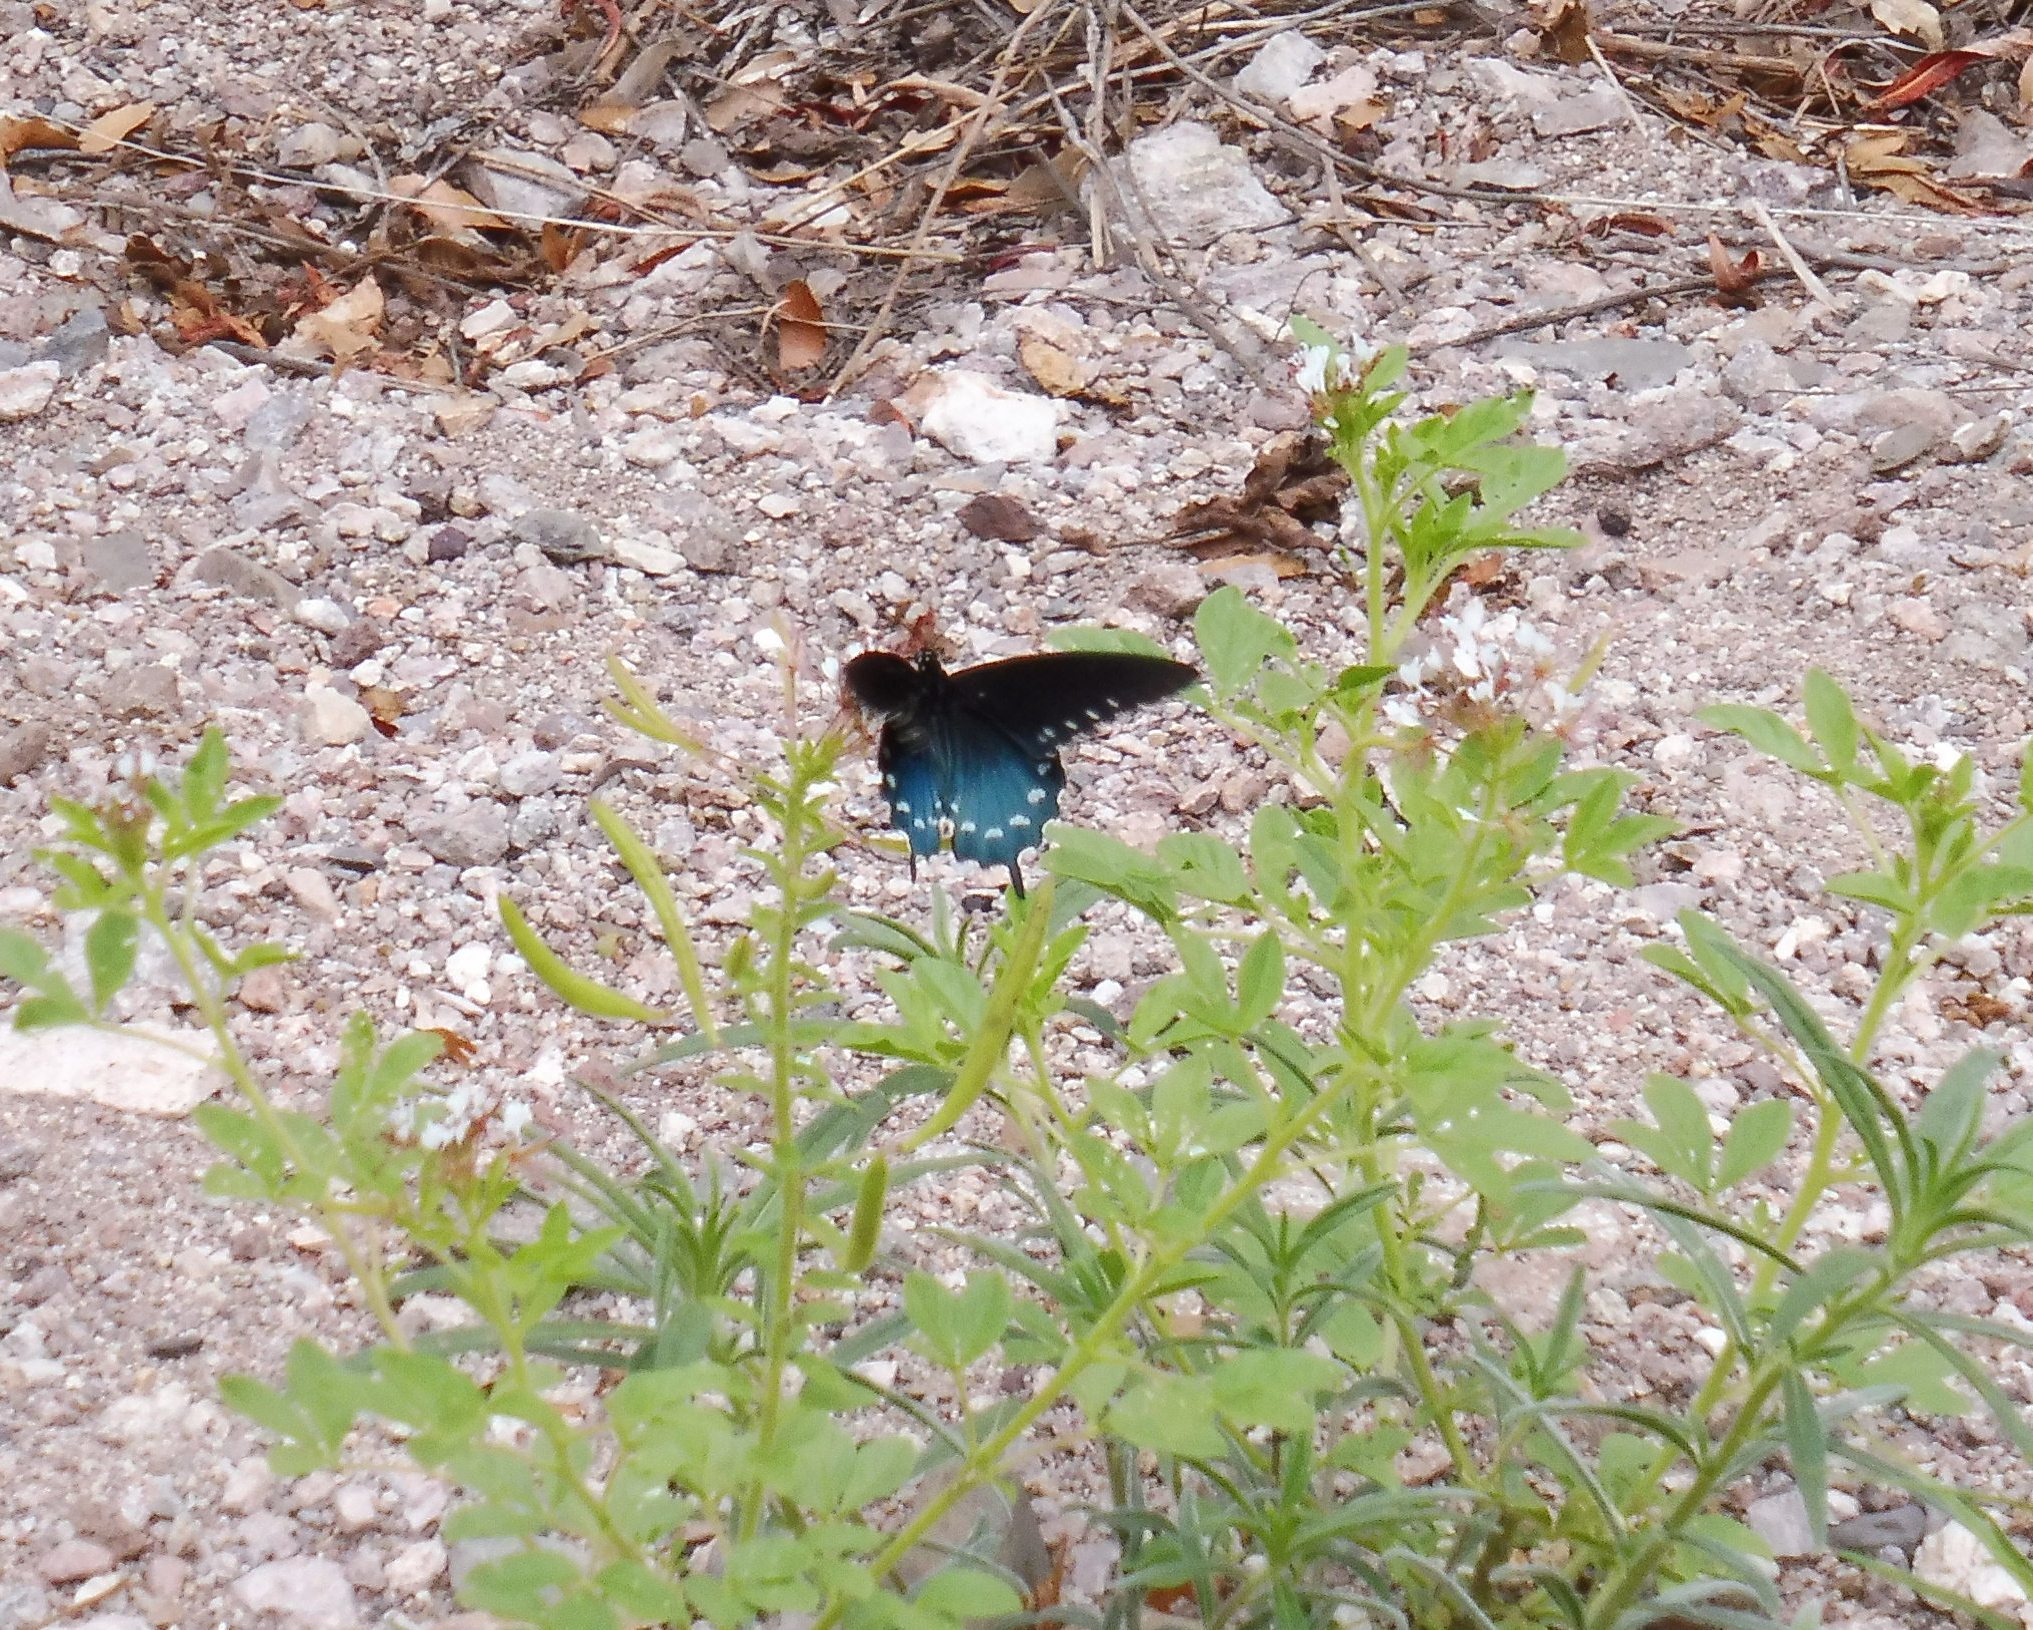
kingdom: Animalia
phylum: Arthropoda
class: Insecta
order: Lepidoptera
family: Papilionidae
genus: Battus
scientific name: Battus philenor
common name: Pipevine swallowtail
